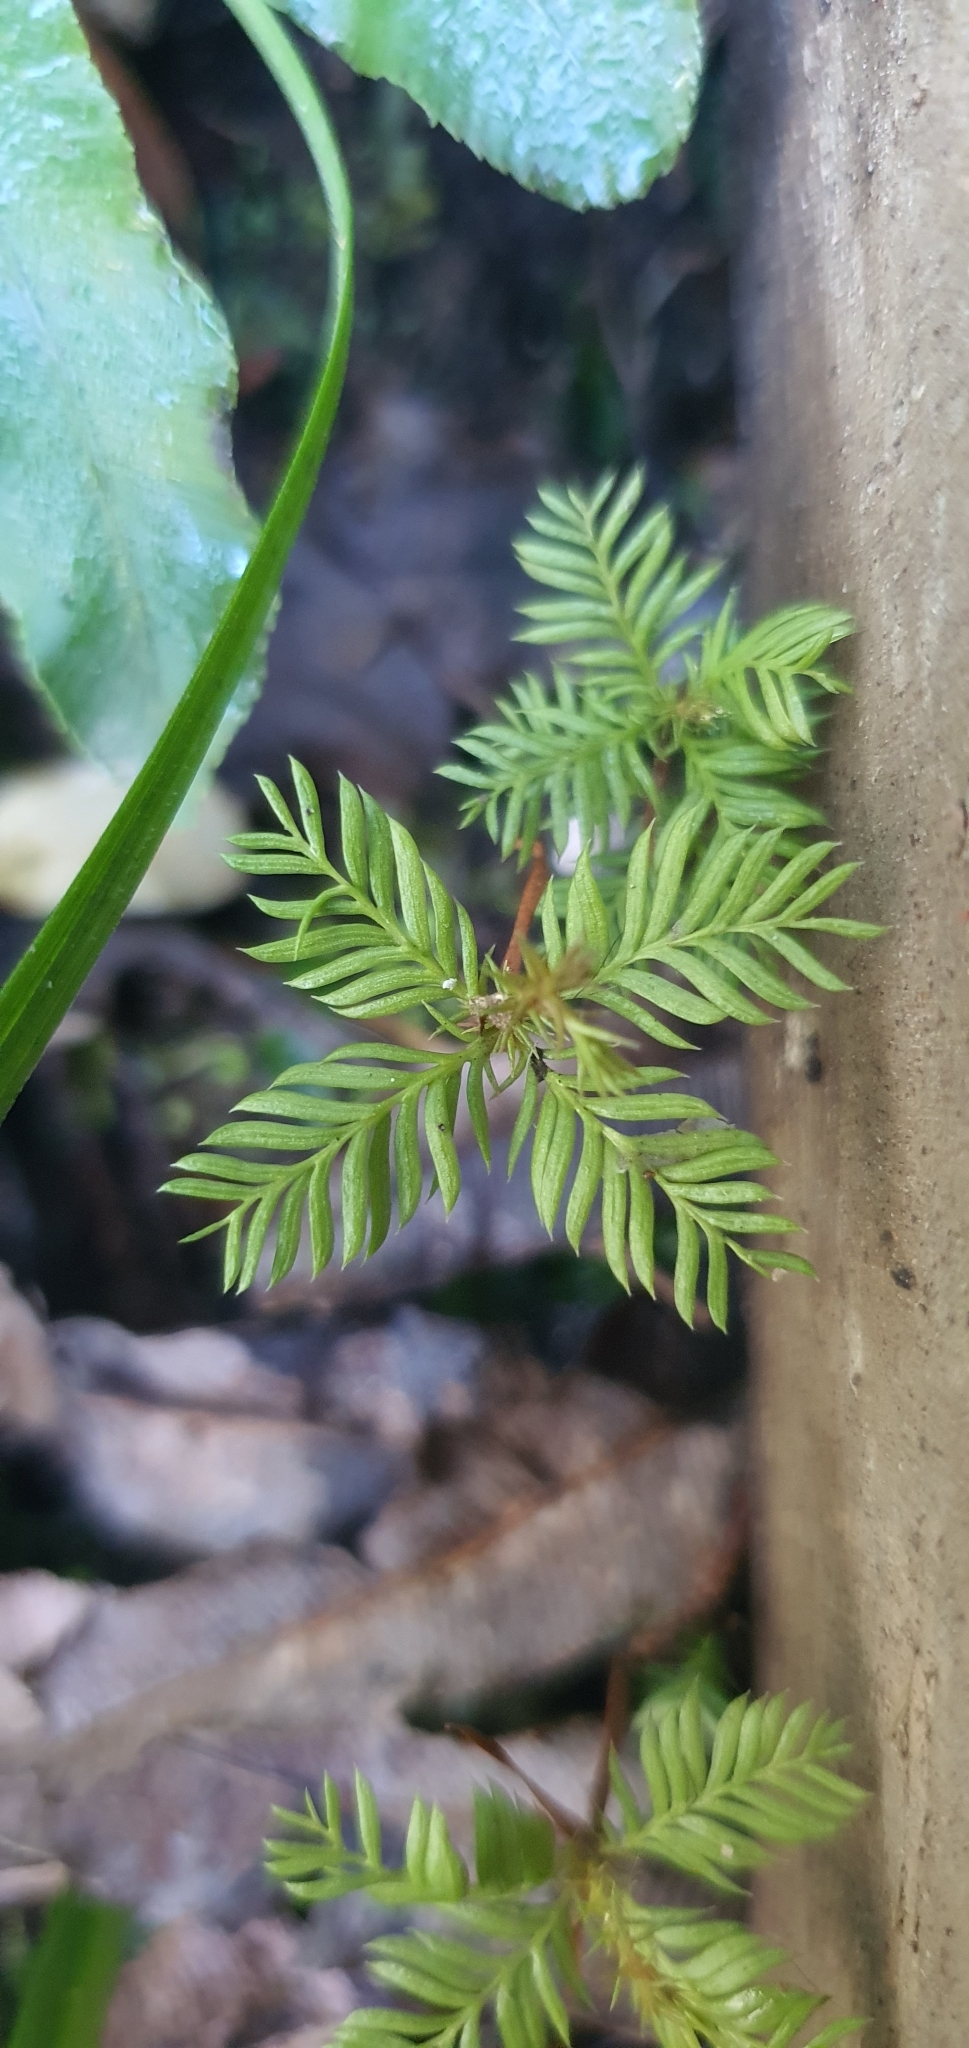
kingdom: Plantae
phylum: Tracheophyta
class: Pinopsida
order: Pinales
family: Podocarpaceae
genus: Dacrycarpus
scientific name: Dacrycarpus dacrydioides
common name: White pine
